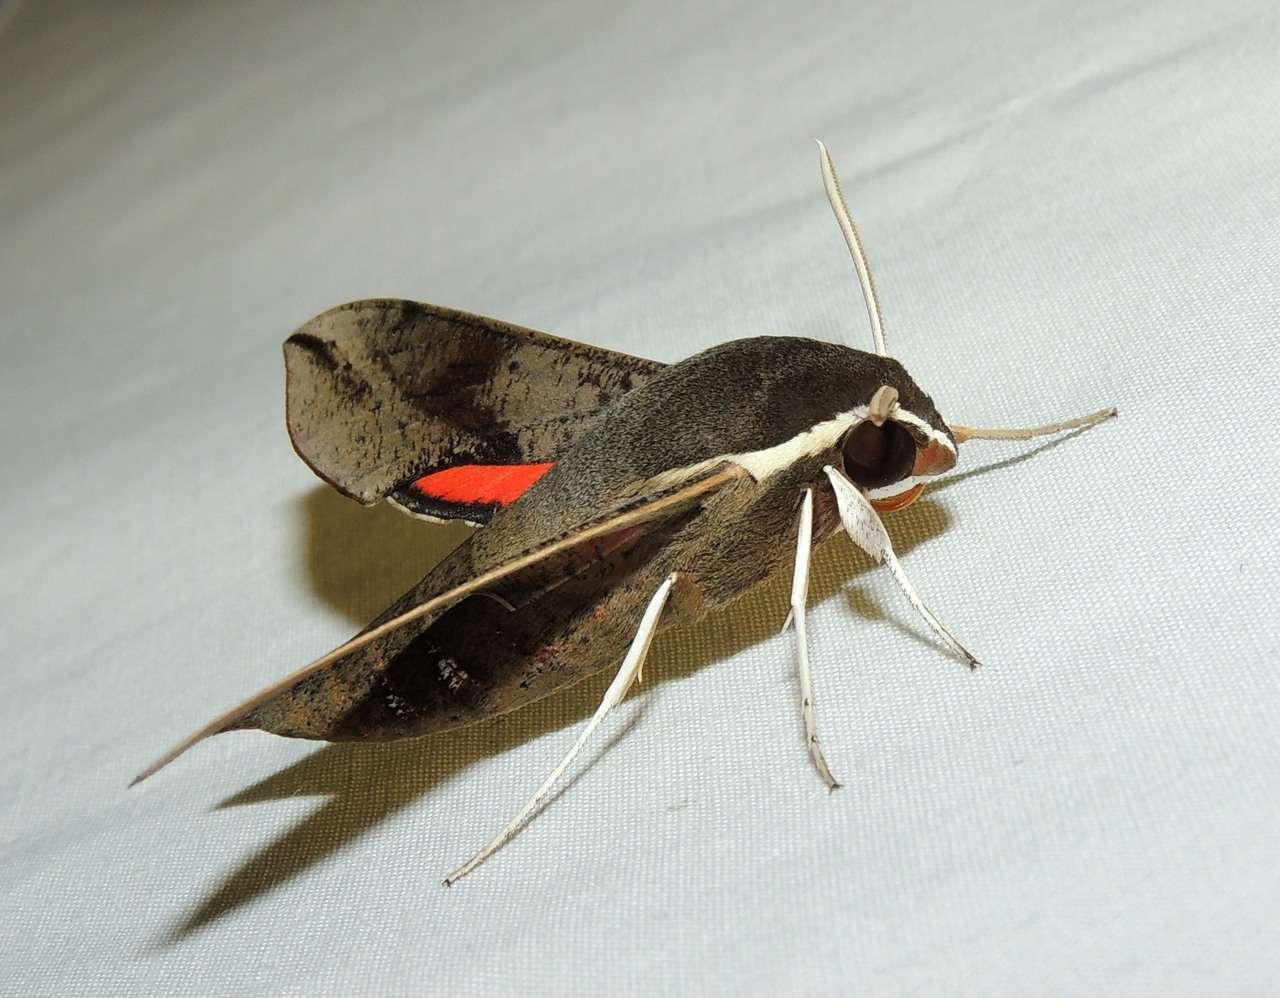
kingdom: Animalia
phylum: Arthropoda
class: Insecta
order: Lepidoptera
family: Sphingidae
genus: Hippotion
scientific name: Hippotion scrofa
